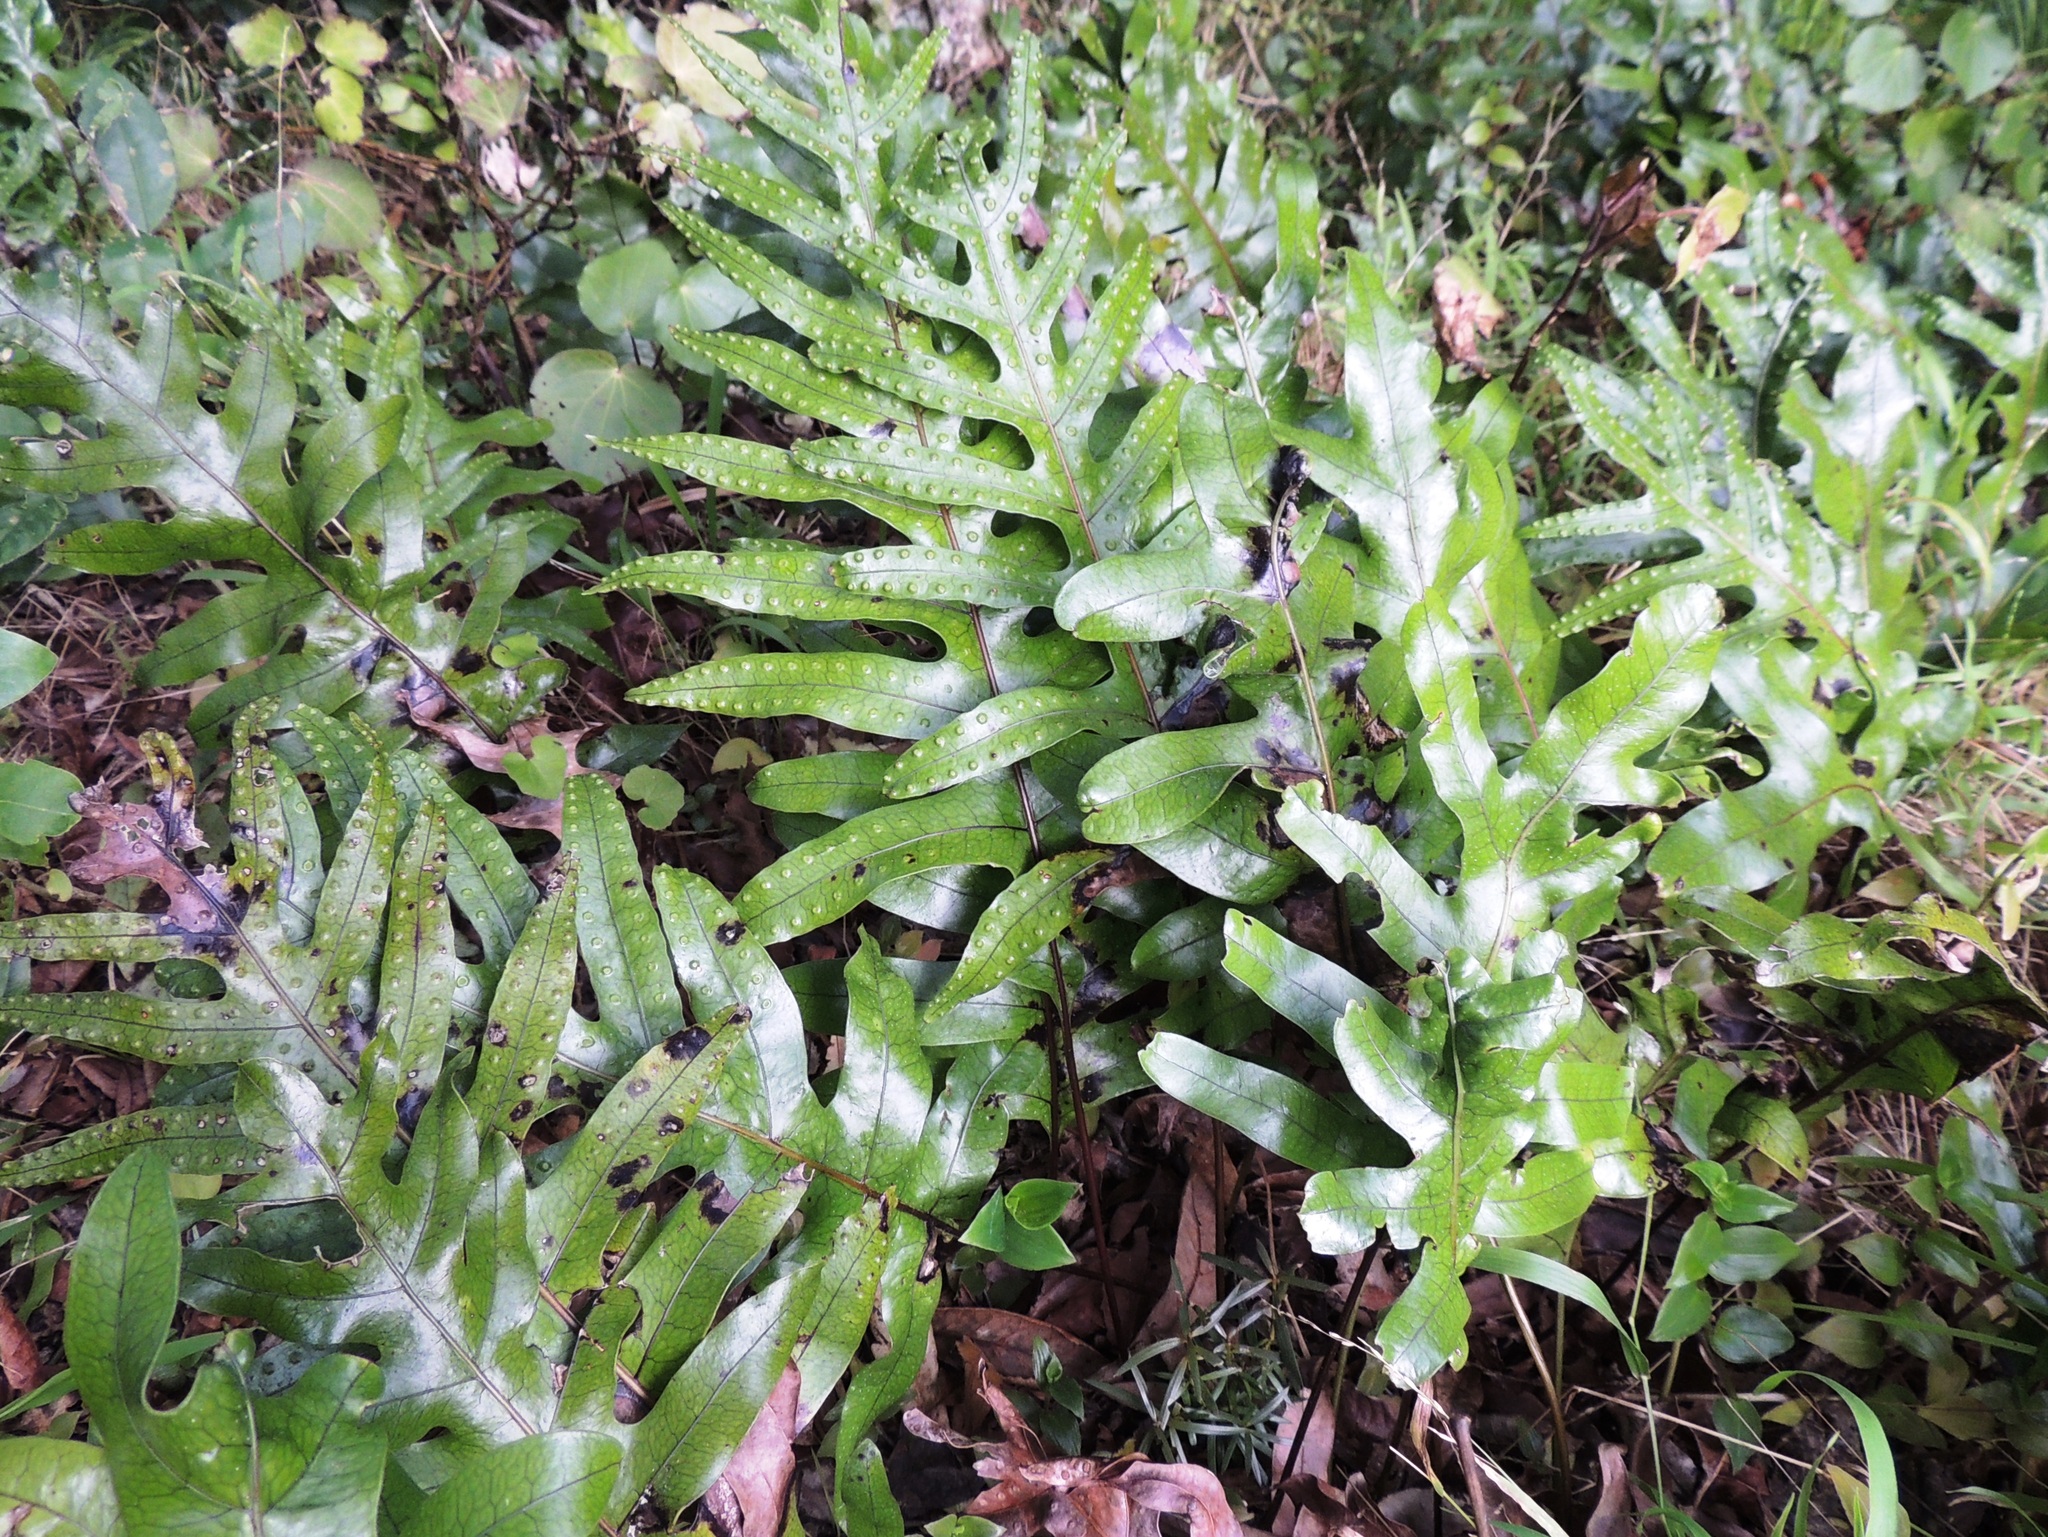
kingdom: Plantae
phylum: Tracheophyta
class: Polypodiopsida
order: Polypodiales
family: Polypodiaceae
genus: Lecanopteris
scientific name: Lecanopteris pustulata
